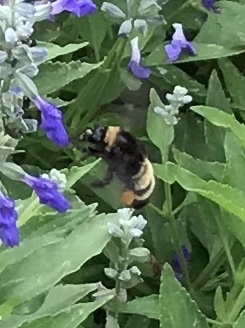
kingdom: Animalia
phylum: Arthropoda
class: Insecta
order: Hymenoptera
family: Apidae
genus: Bombus
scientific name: Bombus pensylvanicus
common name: Bumble bee
